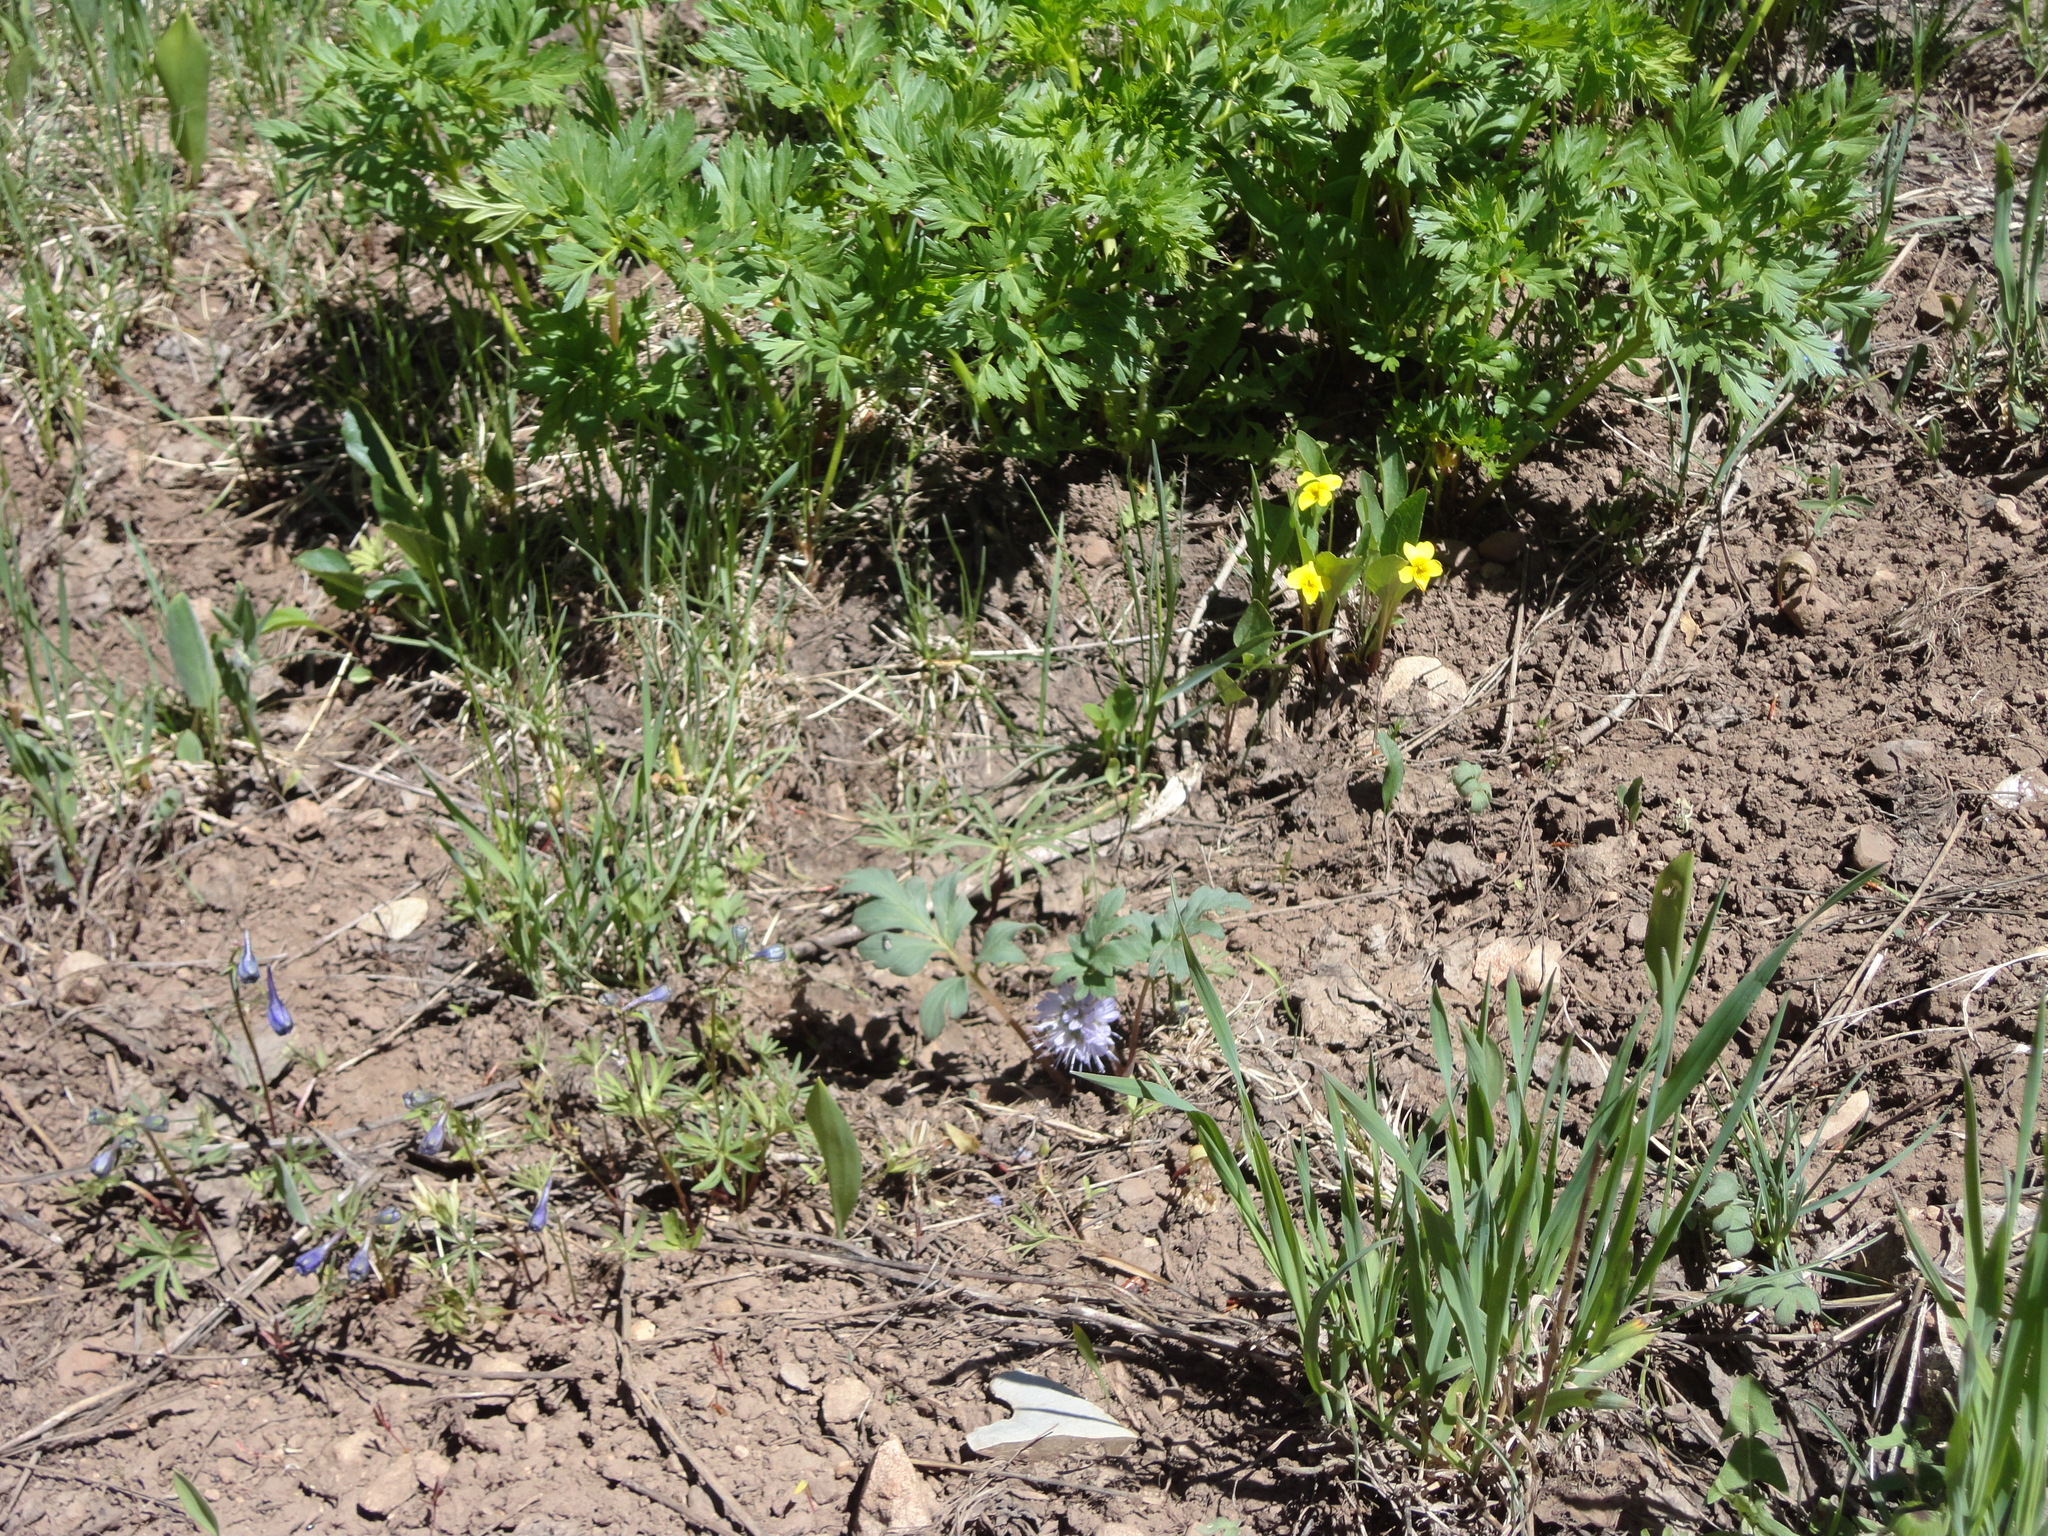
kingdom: Plantae
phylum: Tracheophyta
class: Magnoliopsida
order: Boraginales
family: Hydrophyllaceae
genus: Hydrophyllum
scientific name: Hydrophyllum capitatum
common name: Woollen-breeches
